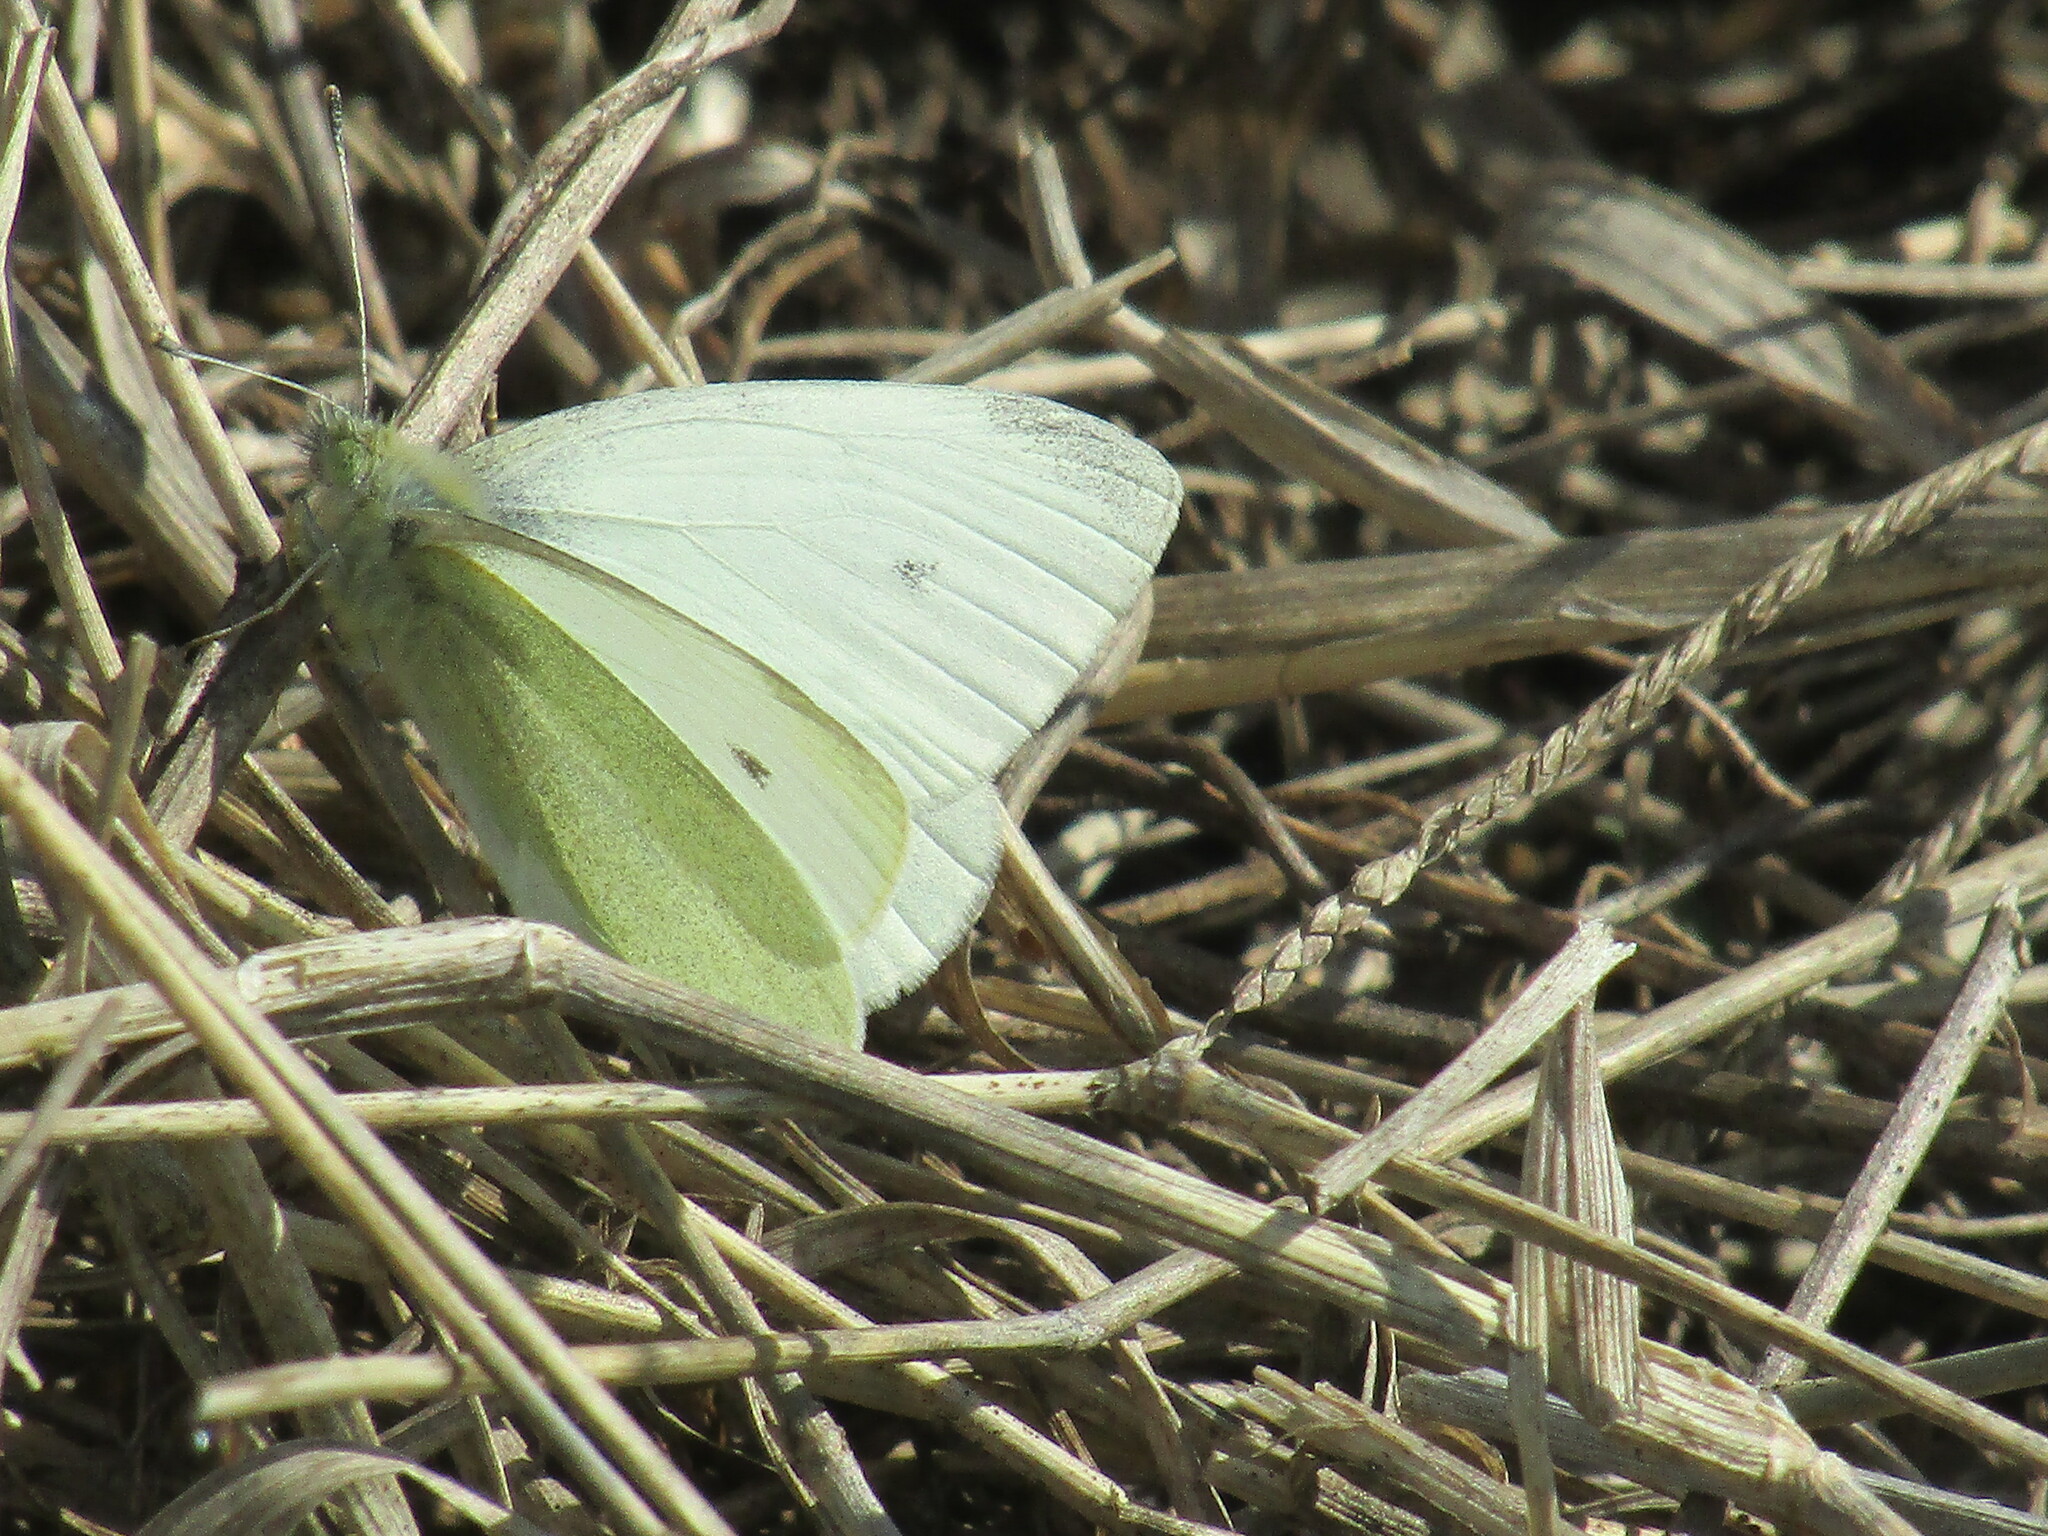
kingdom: Animalia
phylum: Arthropoda
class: Insecta
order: Lepidoptera
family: Pieridae
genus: Pieris
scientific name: Pieris rapae
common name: Small white
